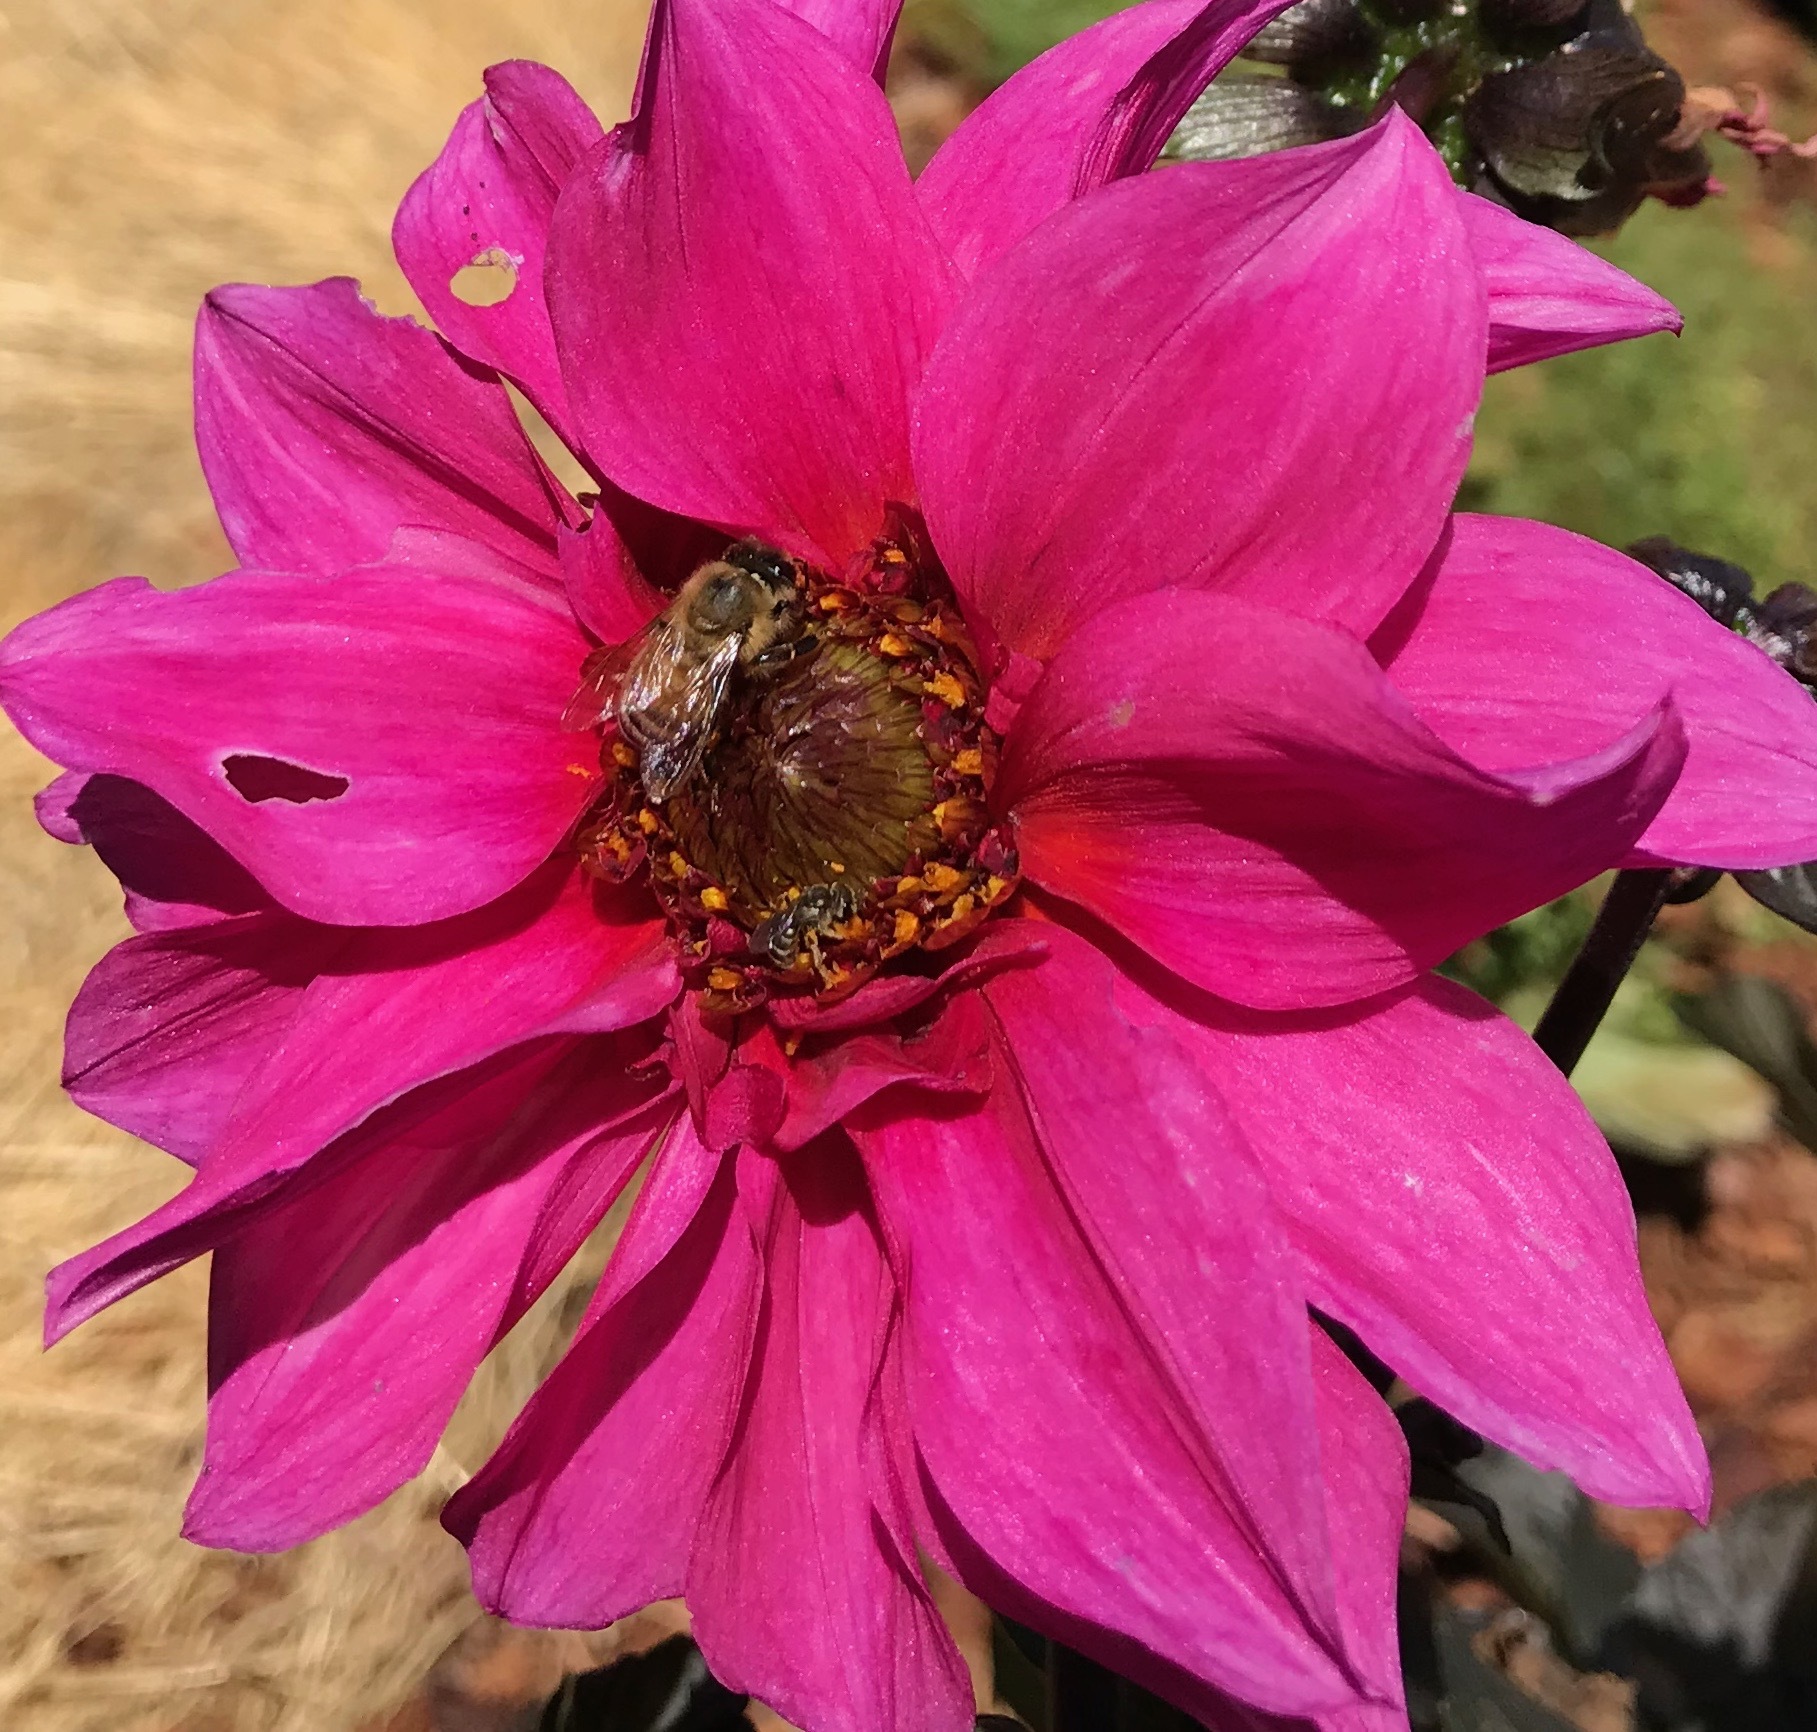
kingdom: Animalia
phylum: Arthropoda
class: Insecta
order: Hymenoptera
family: Apidae
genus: Apis
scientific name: Apis mellifera
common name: Honey bee
